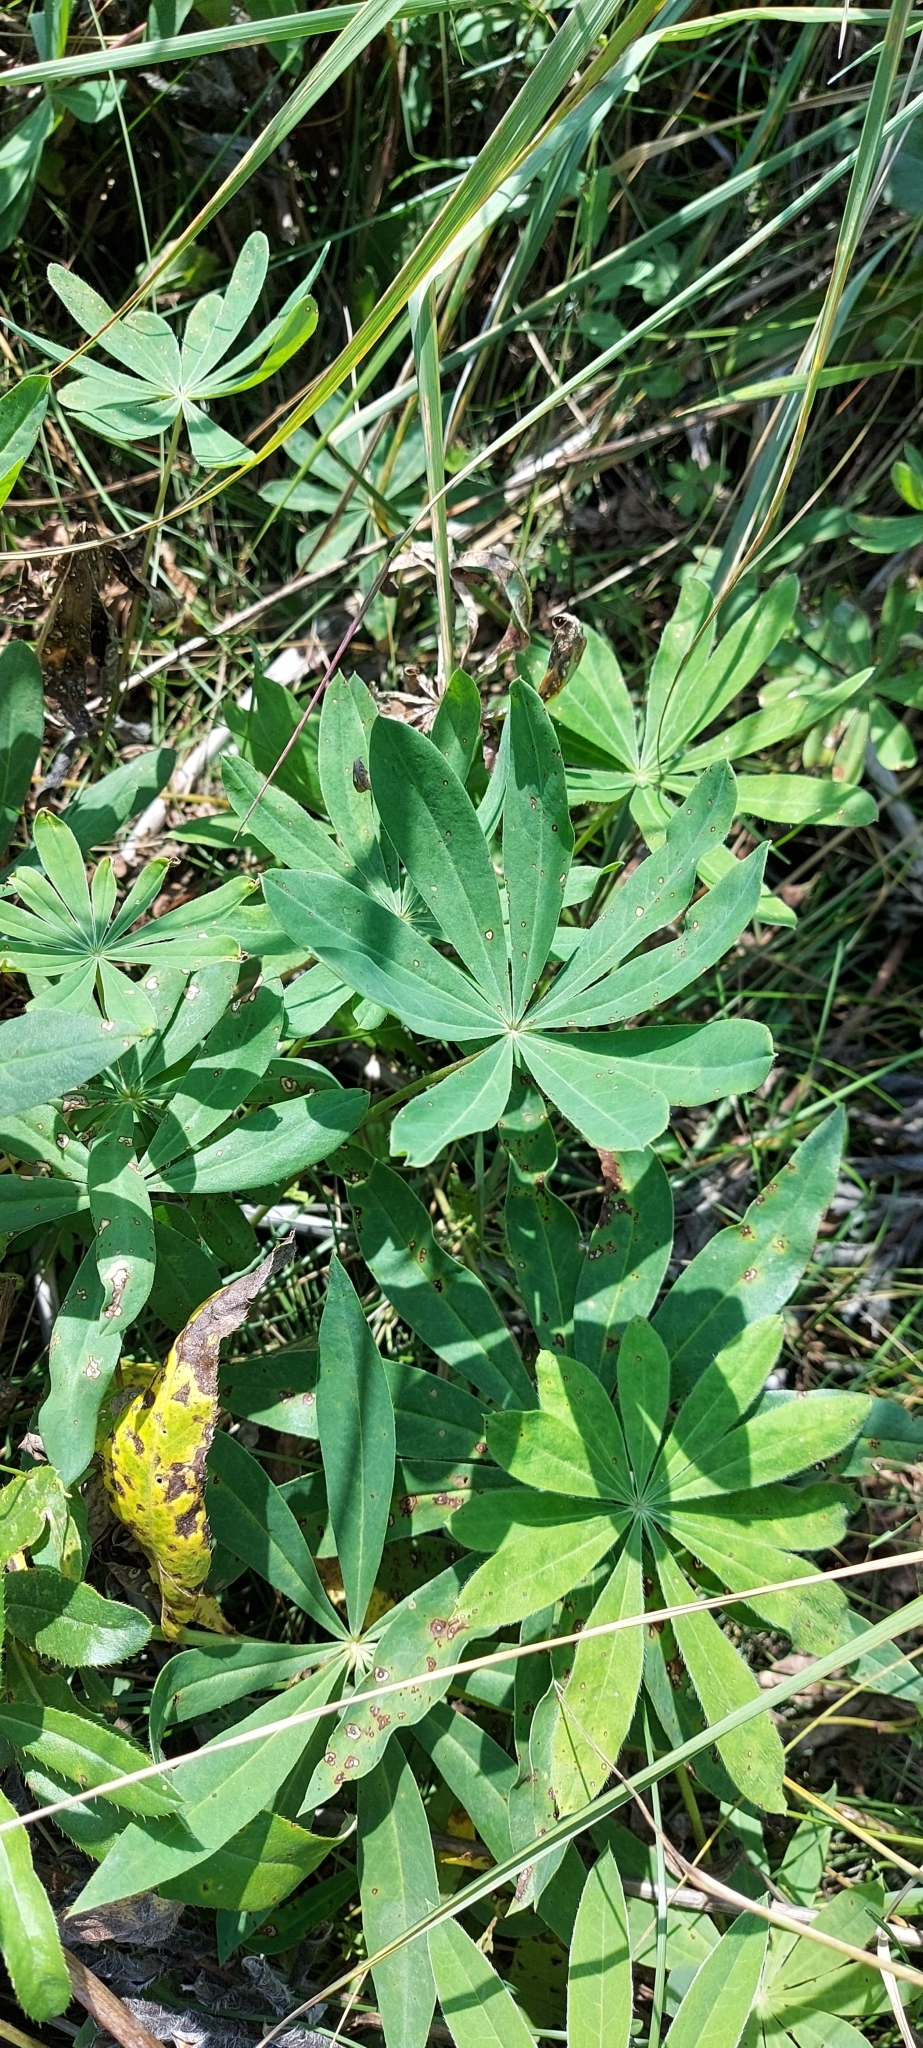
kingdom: Plantae
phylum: Tracheophyta
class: Magnoliopsida
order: Fabales
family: Fabaceae
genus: Lupinus
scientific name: Lupinus polyphyllus
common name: Garden lupin
